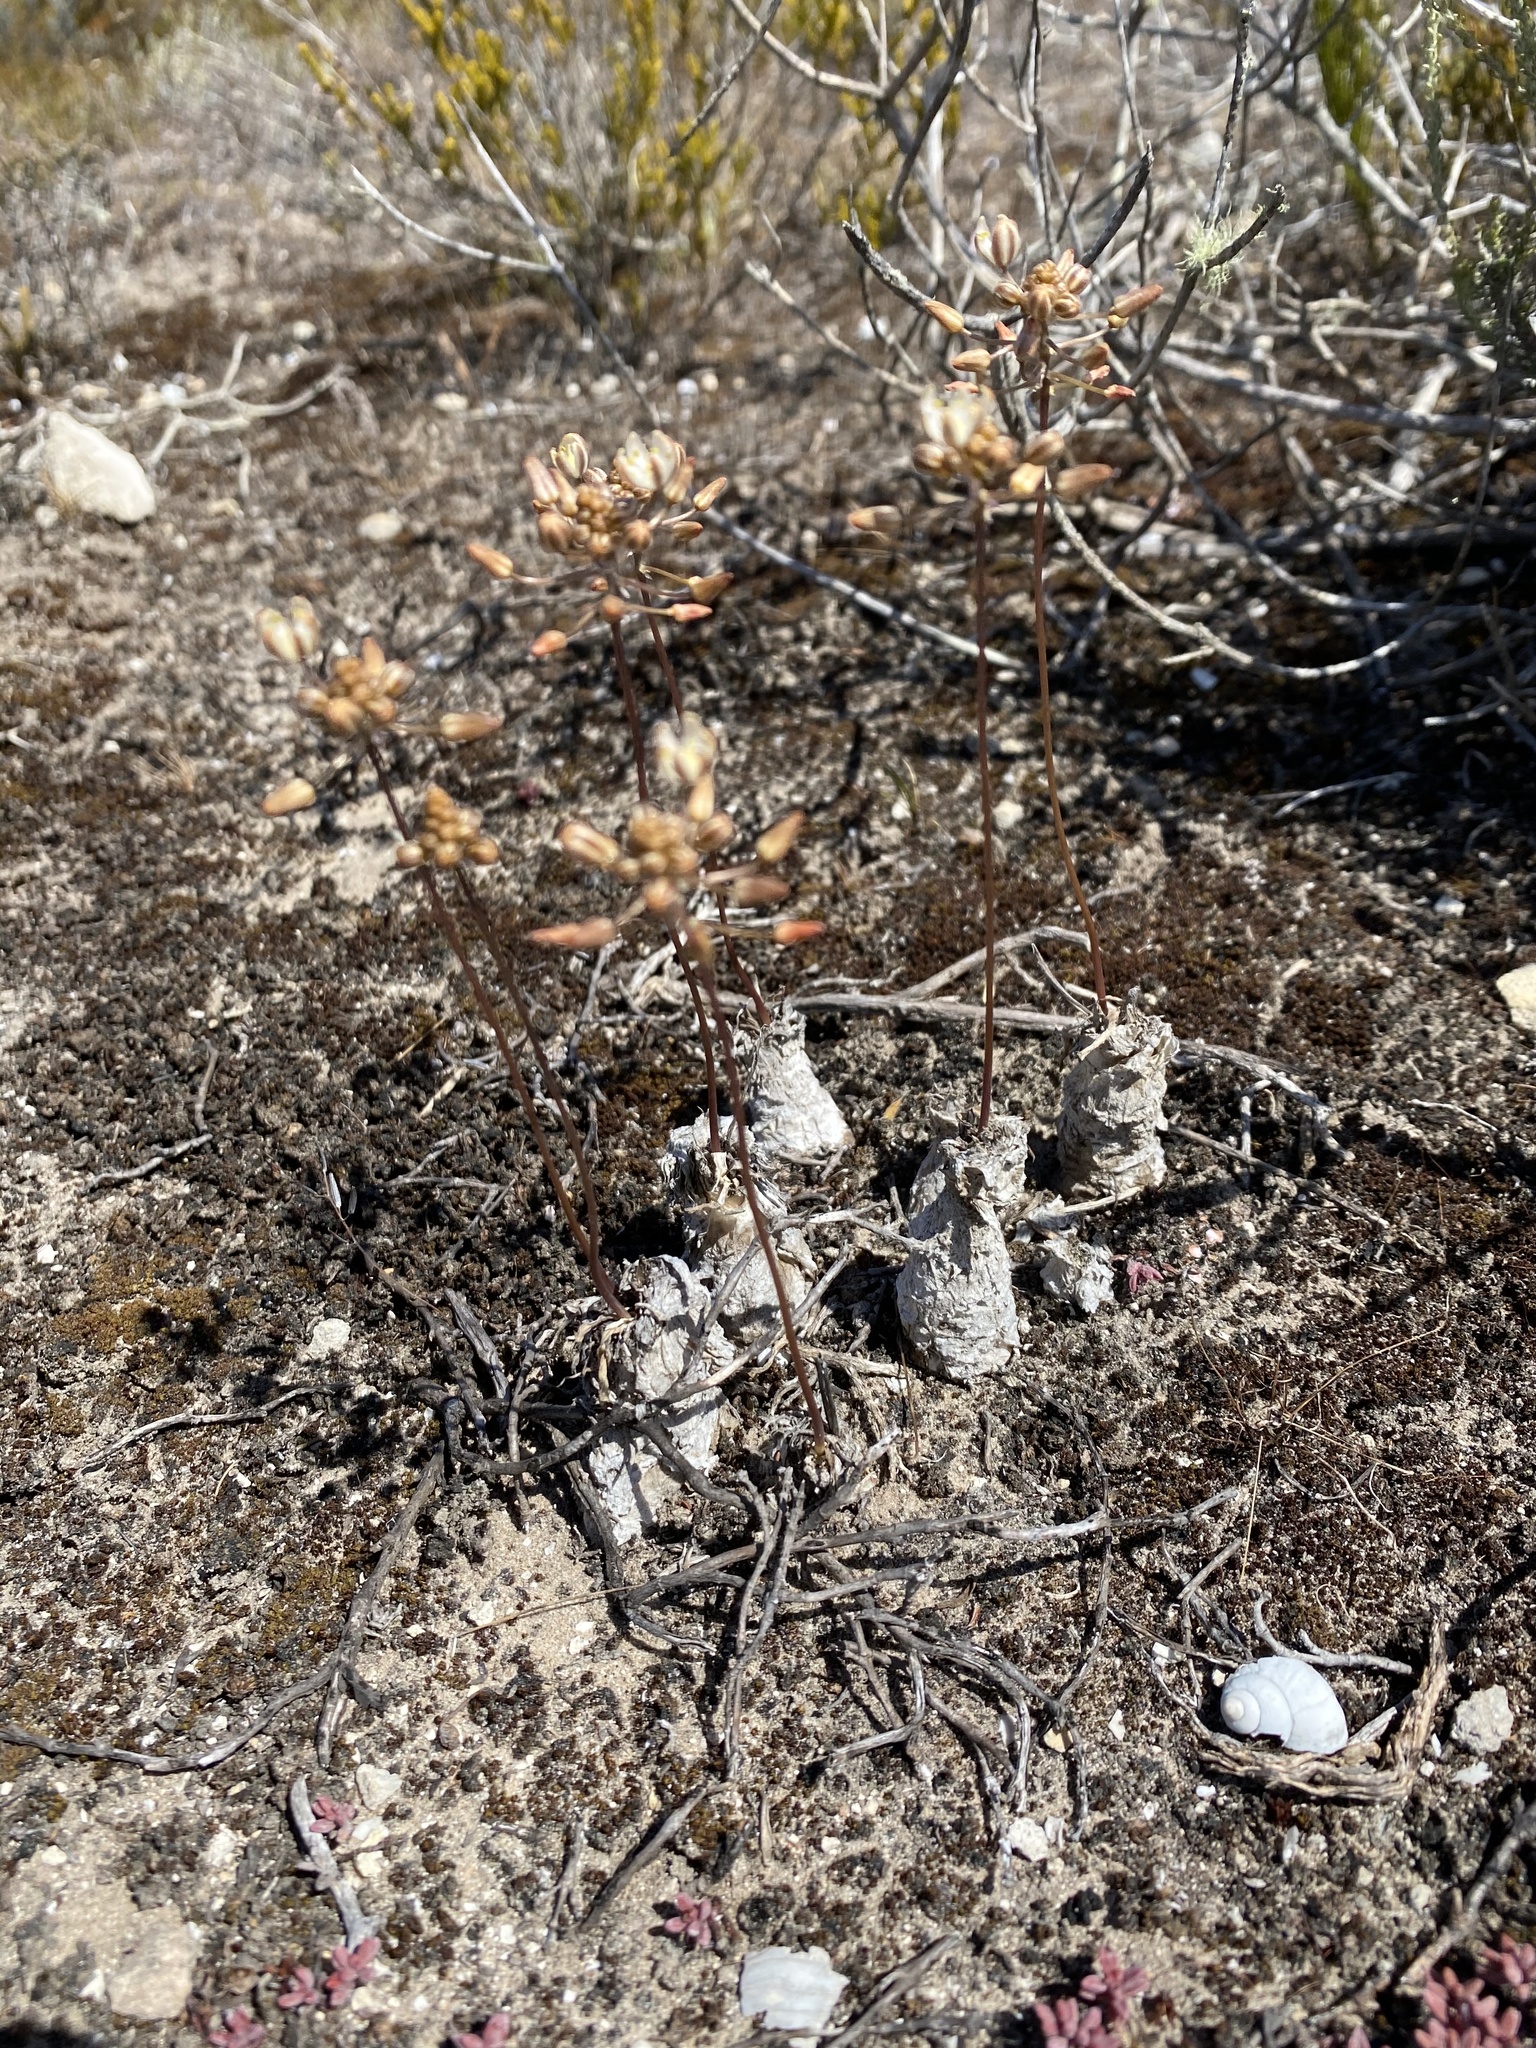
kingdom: Plantae
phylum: Tracheophyta
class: Liliopsida
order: Asparagales
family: Asparagaceae
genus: Fusifilum
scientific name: Fusifilum physodes
